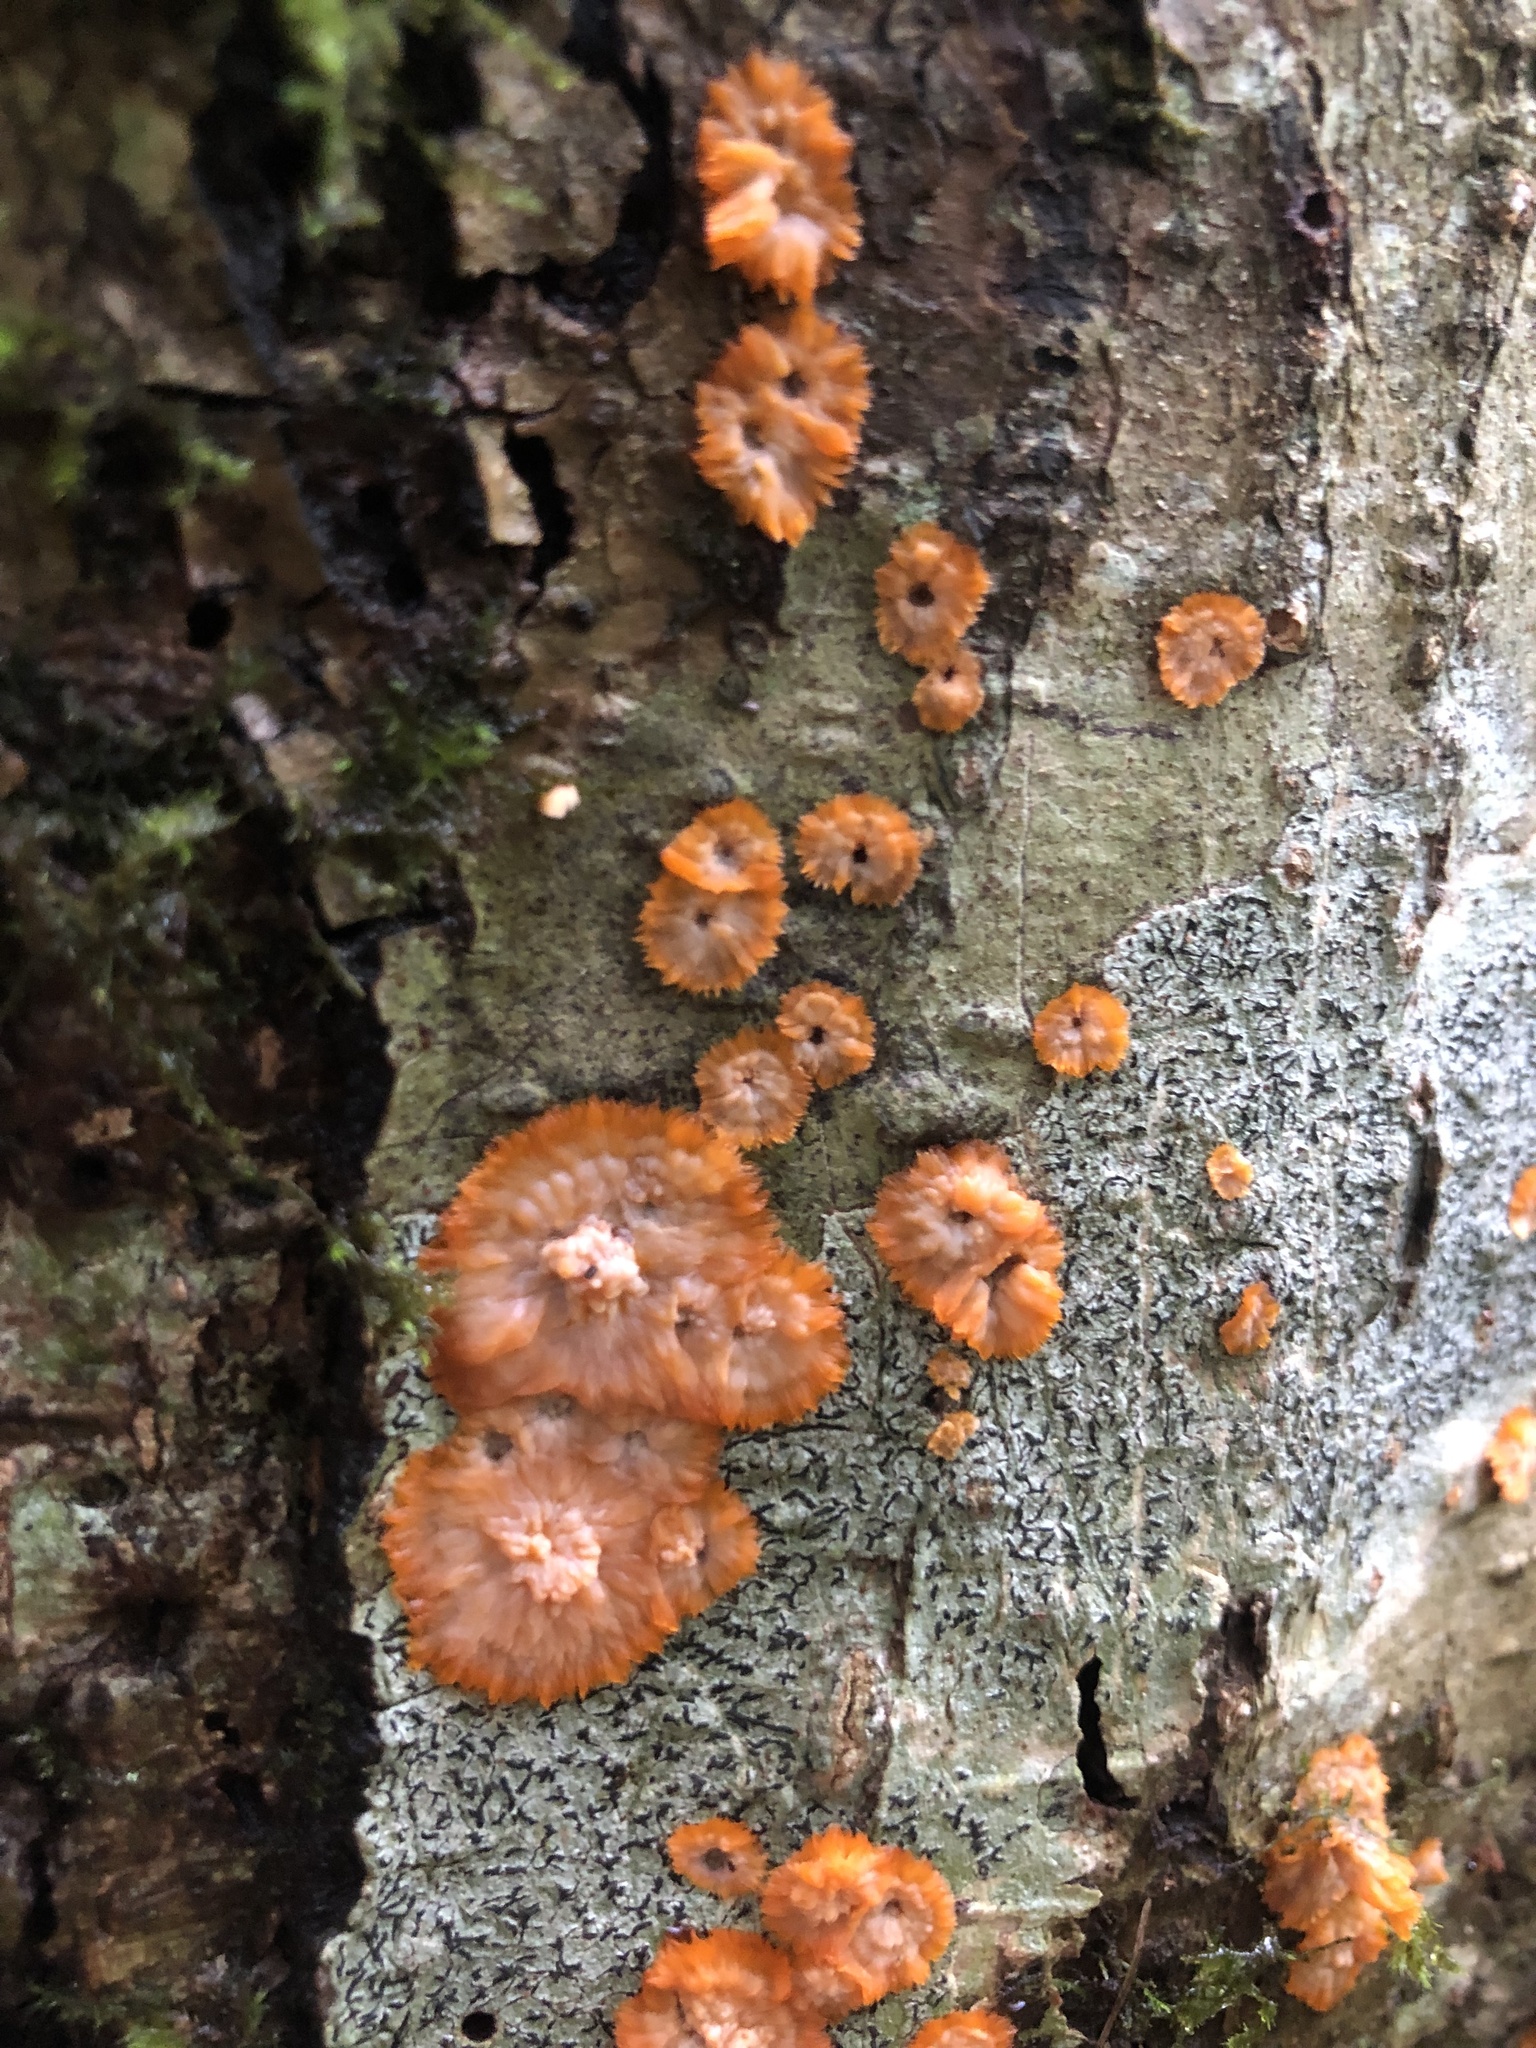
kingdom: Fungi
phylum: Basidiomycota
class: Agaricomycetes
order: Polyporales
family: Meruliaceae
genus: Phlebia
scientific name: Phlebia radiata
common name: Wrinkled crust
